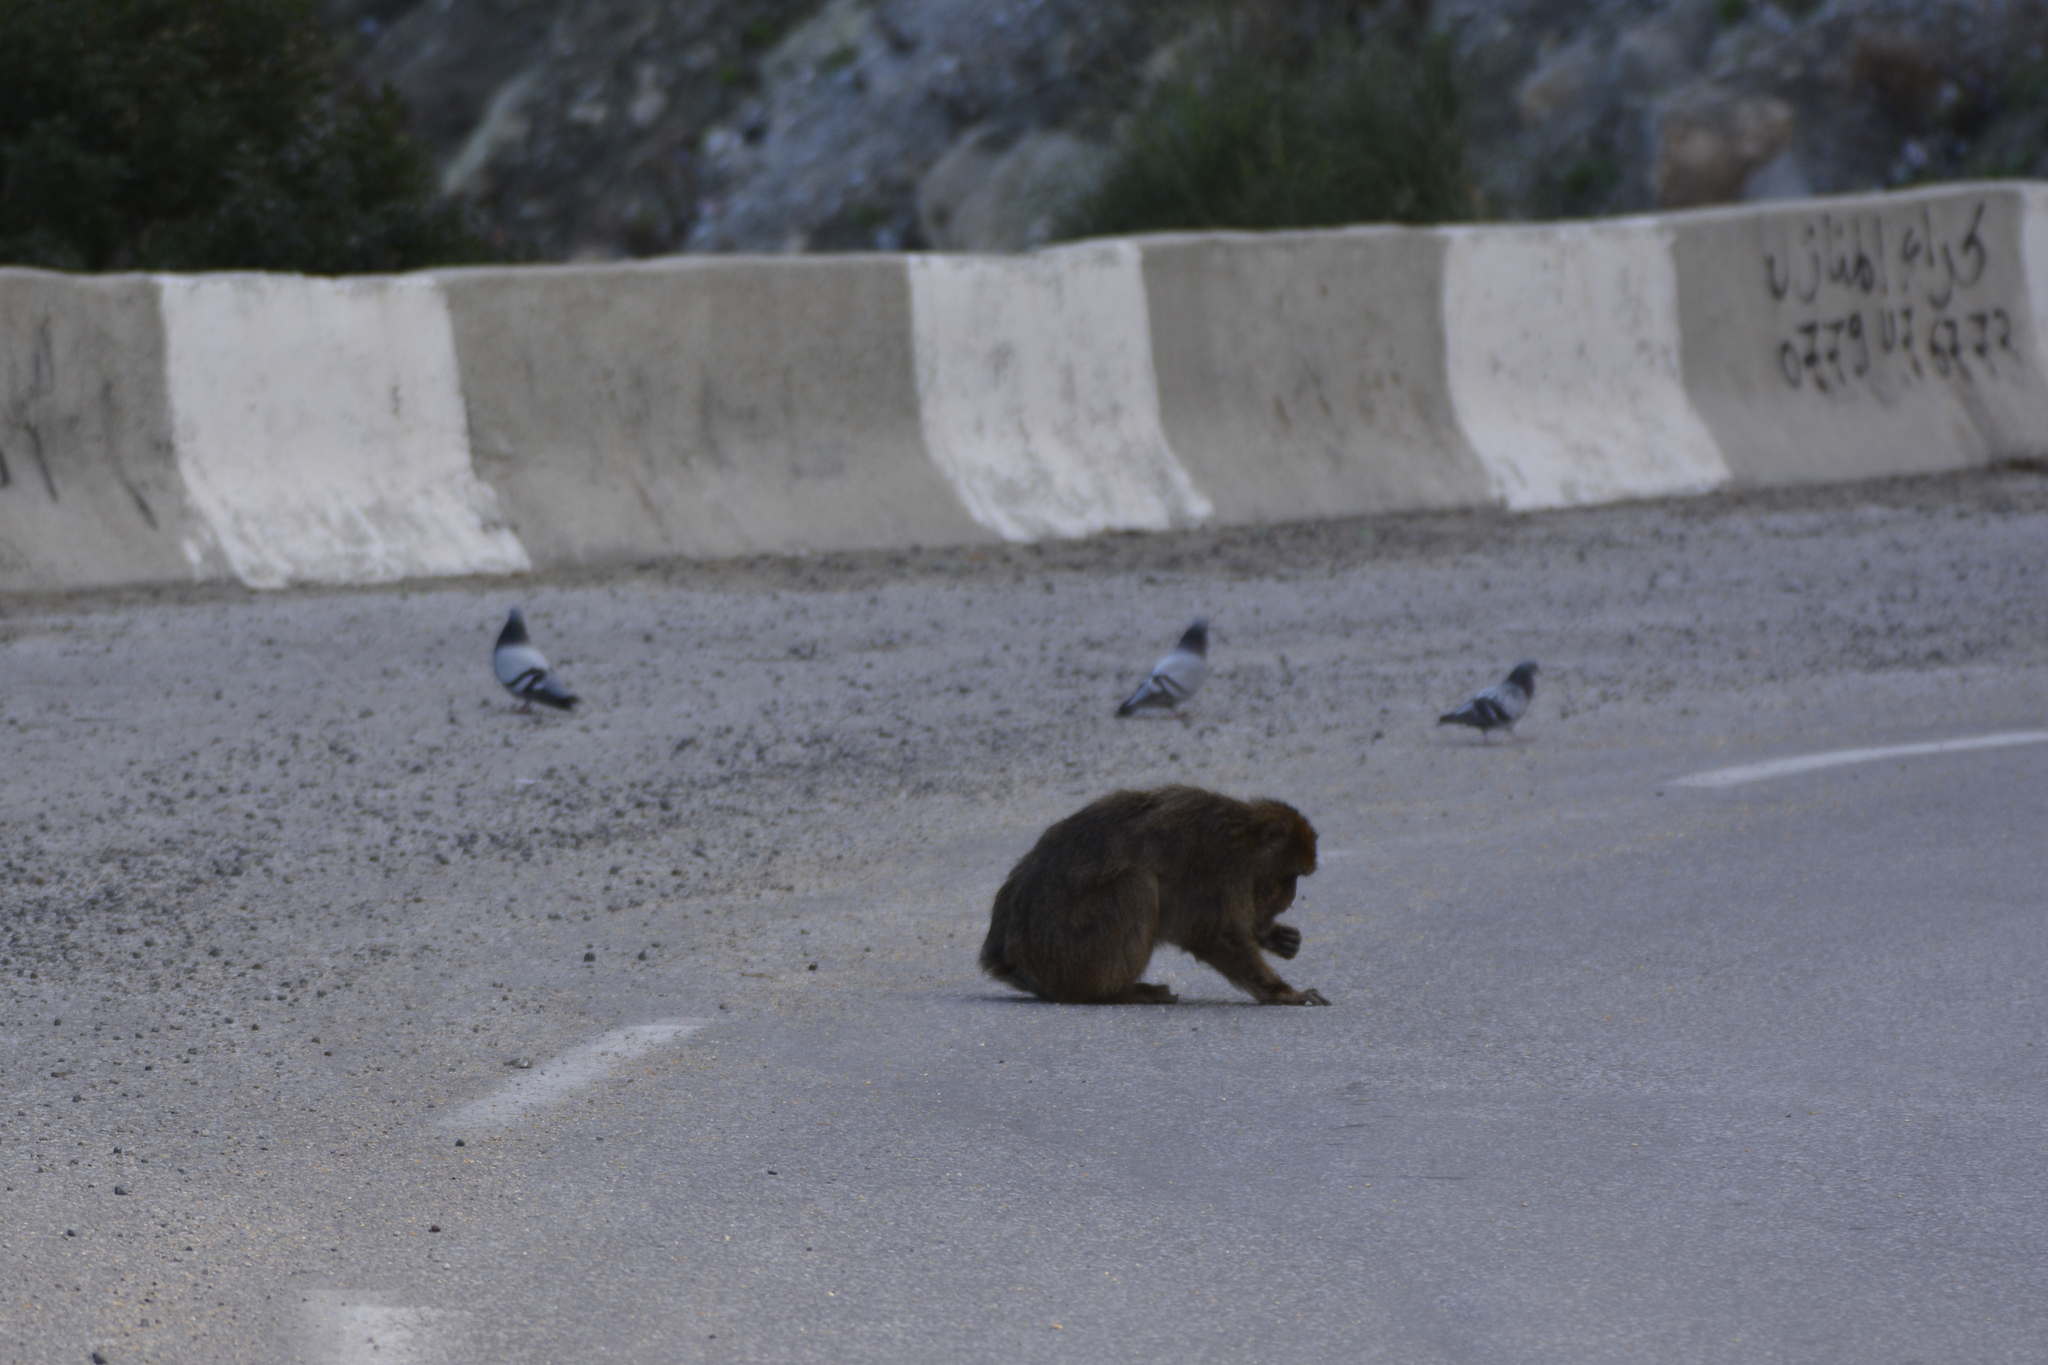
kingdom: Animalia
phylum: Chordata
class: Mammalia
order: Primates
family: Cercopithecidae
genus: Macaca
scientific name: Macaca sylvanus
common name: Barbary macaque
